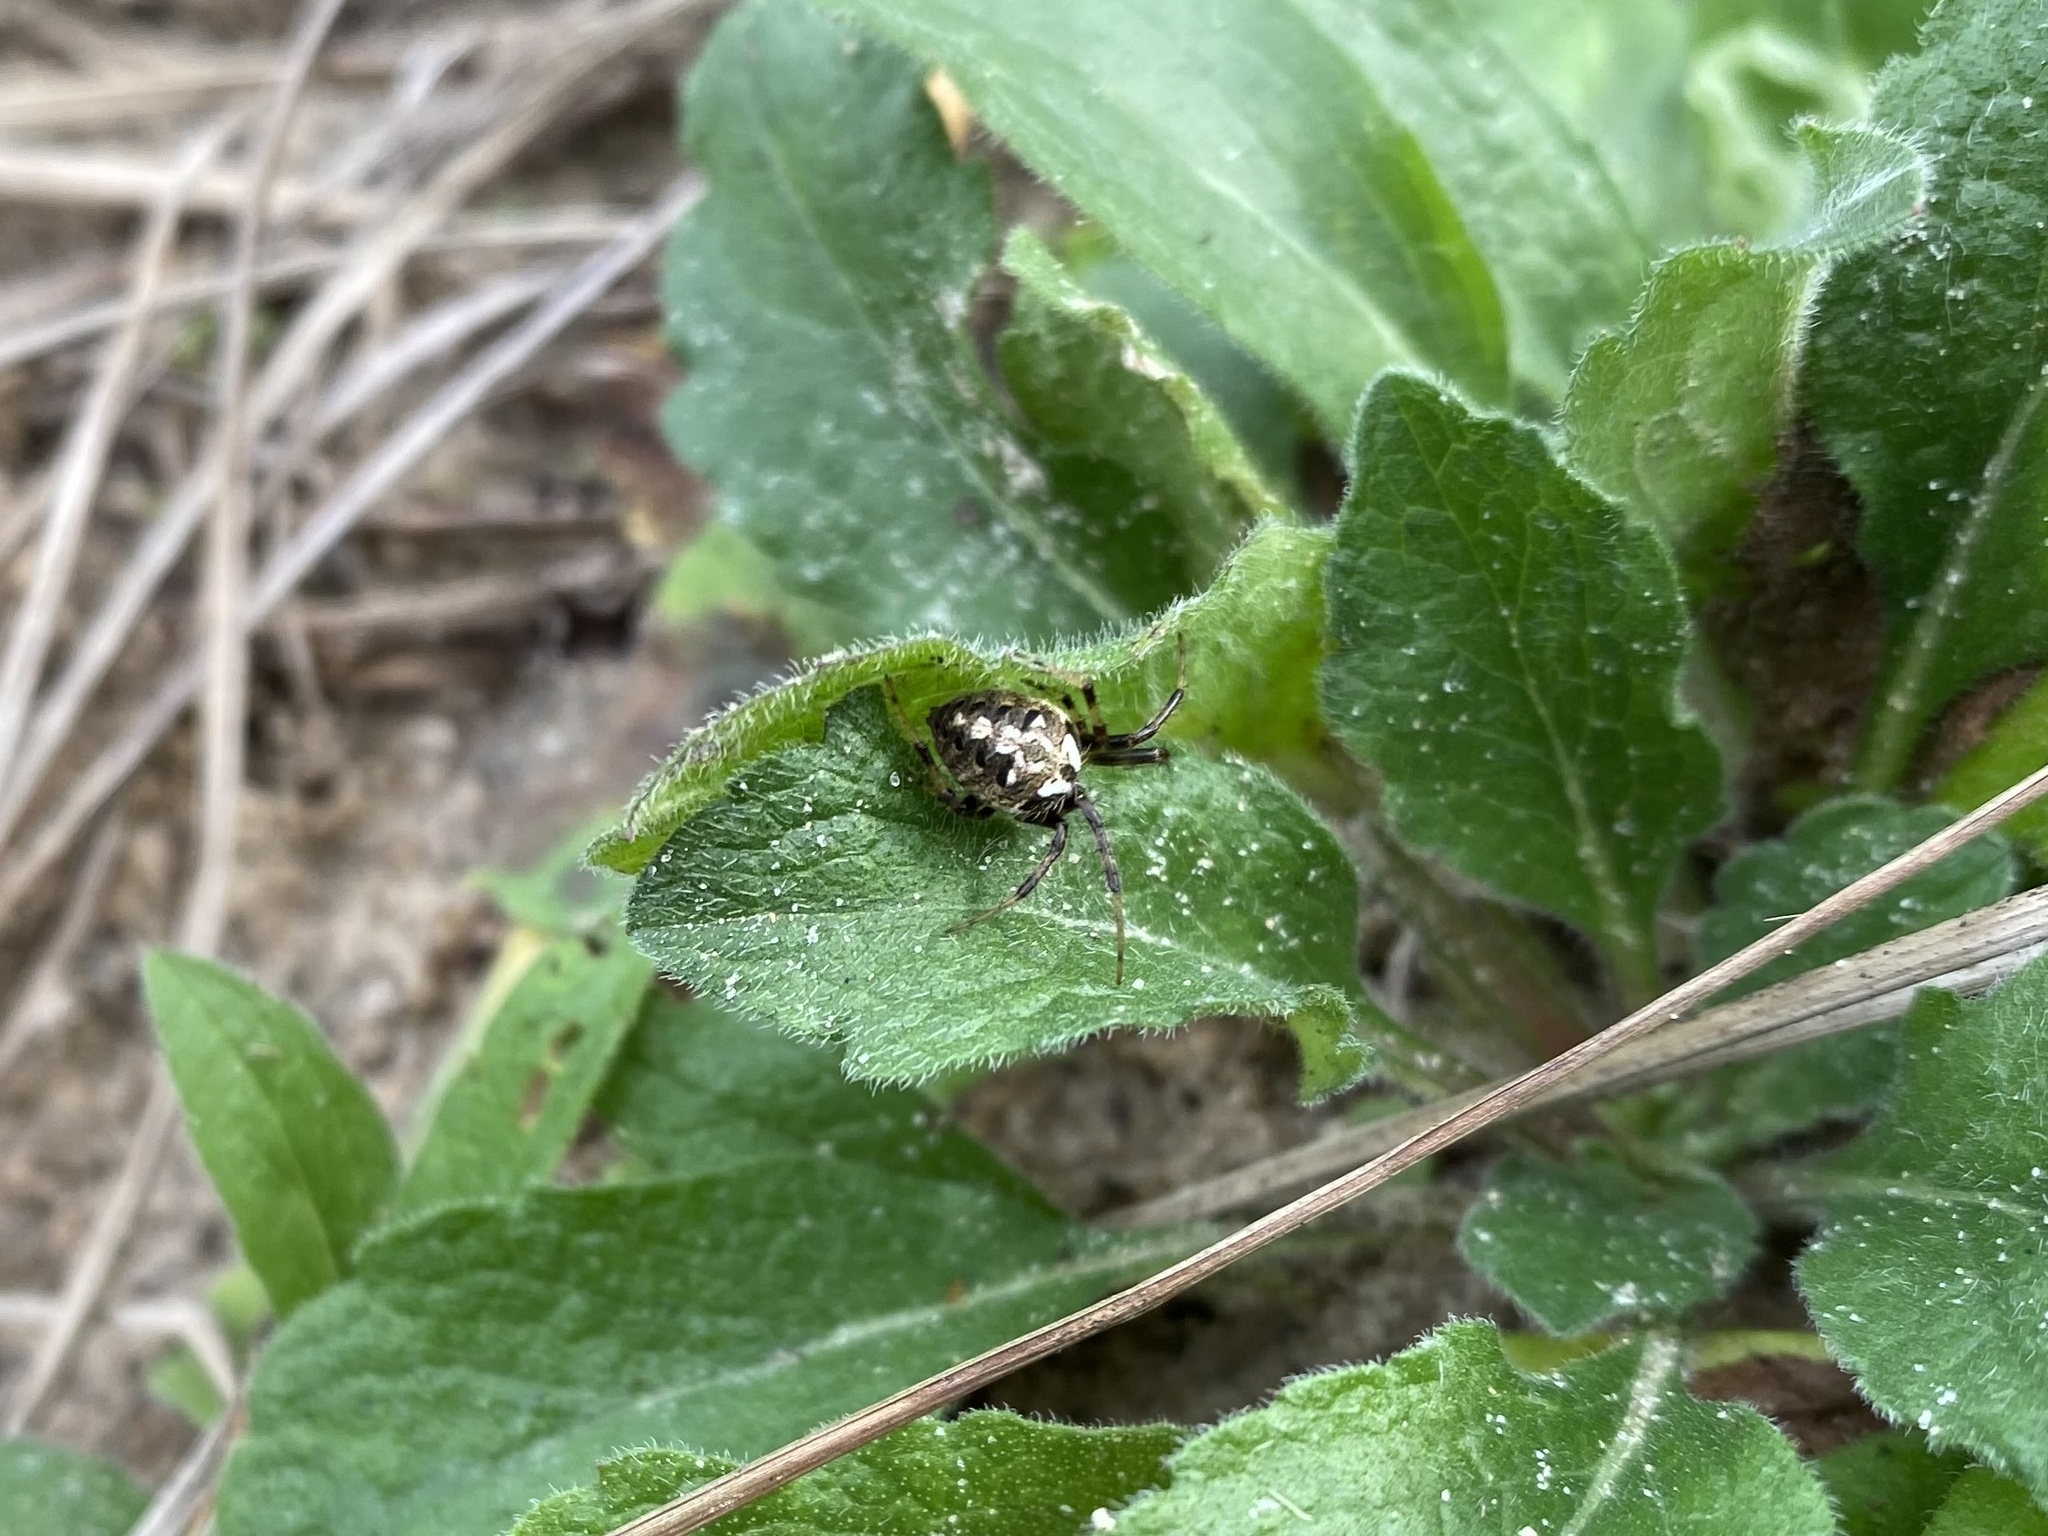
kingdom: Animalia
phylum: Arthropoda
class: Arachnida
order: Araneae
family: Araneidae
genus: Neoscona
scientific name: Neoscona arabesca
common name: Orb weavers
